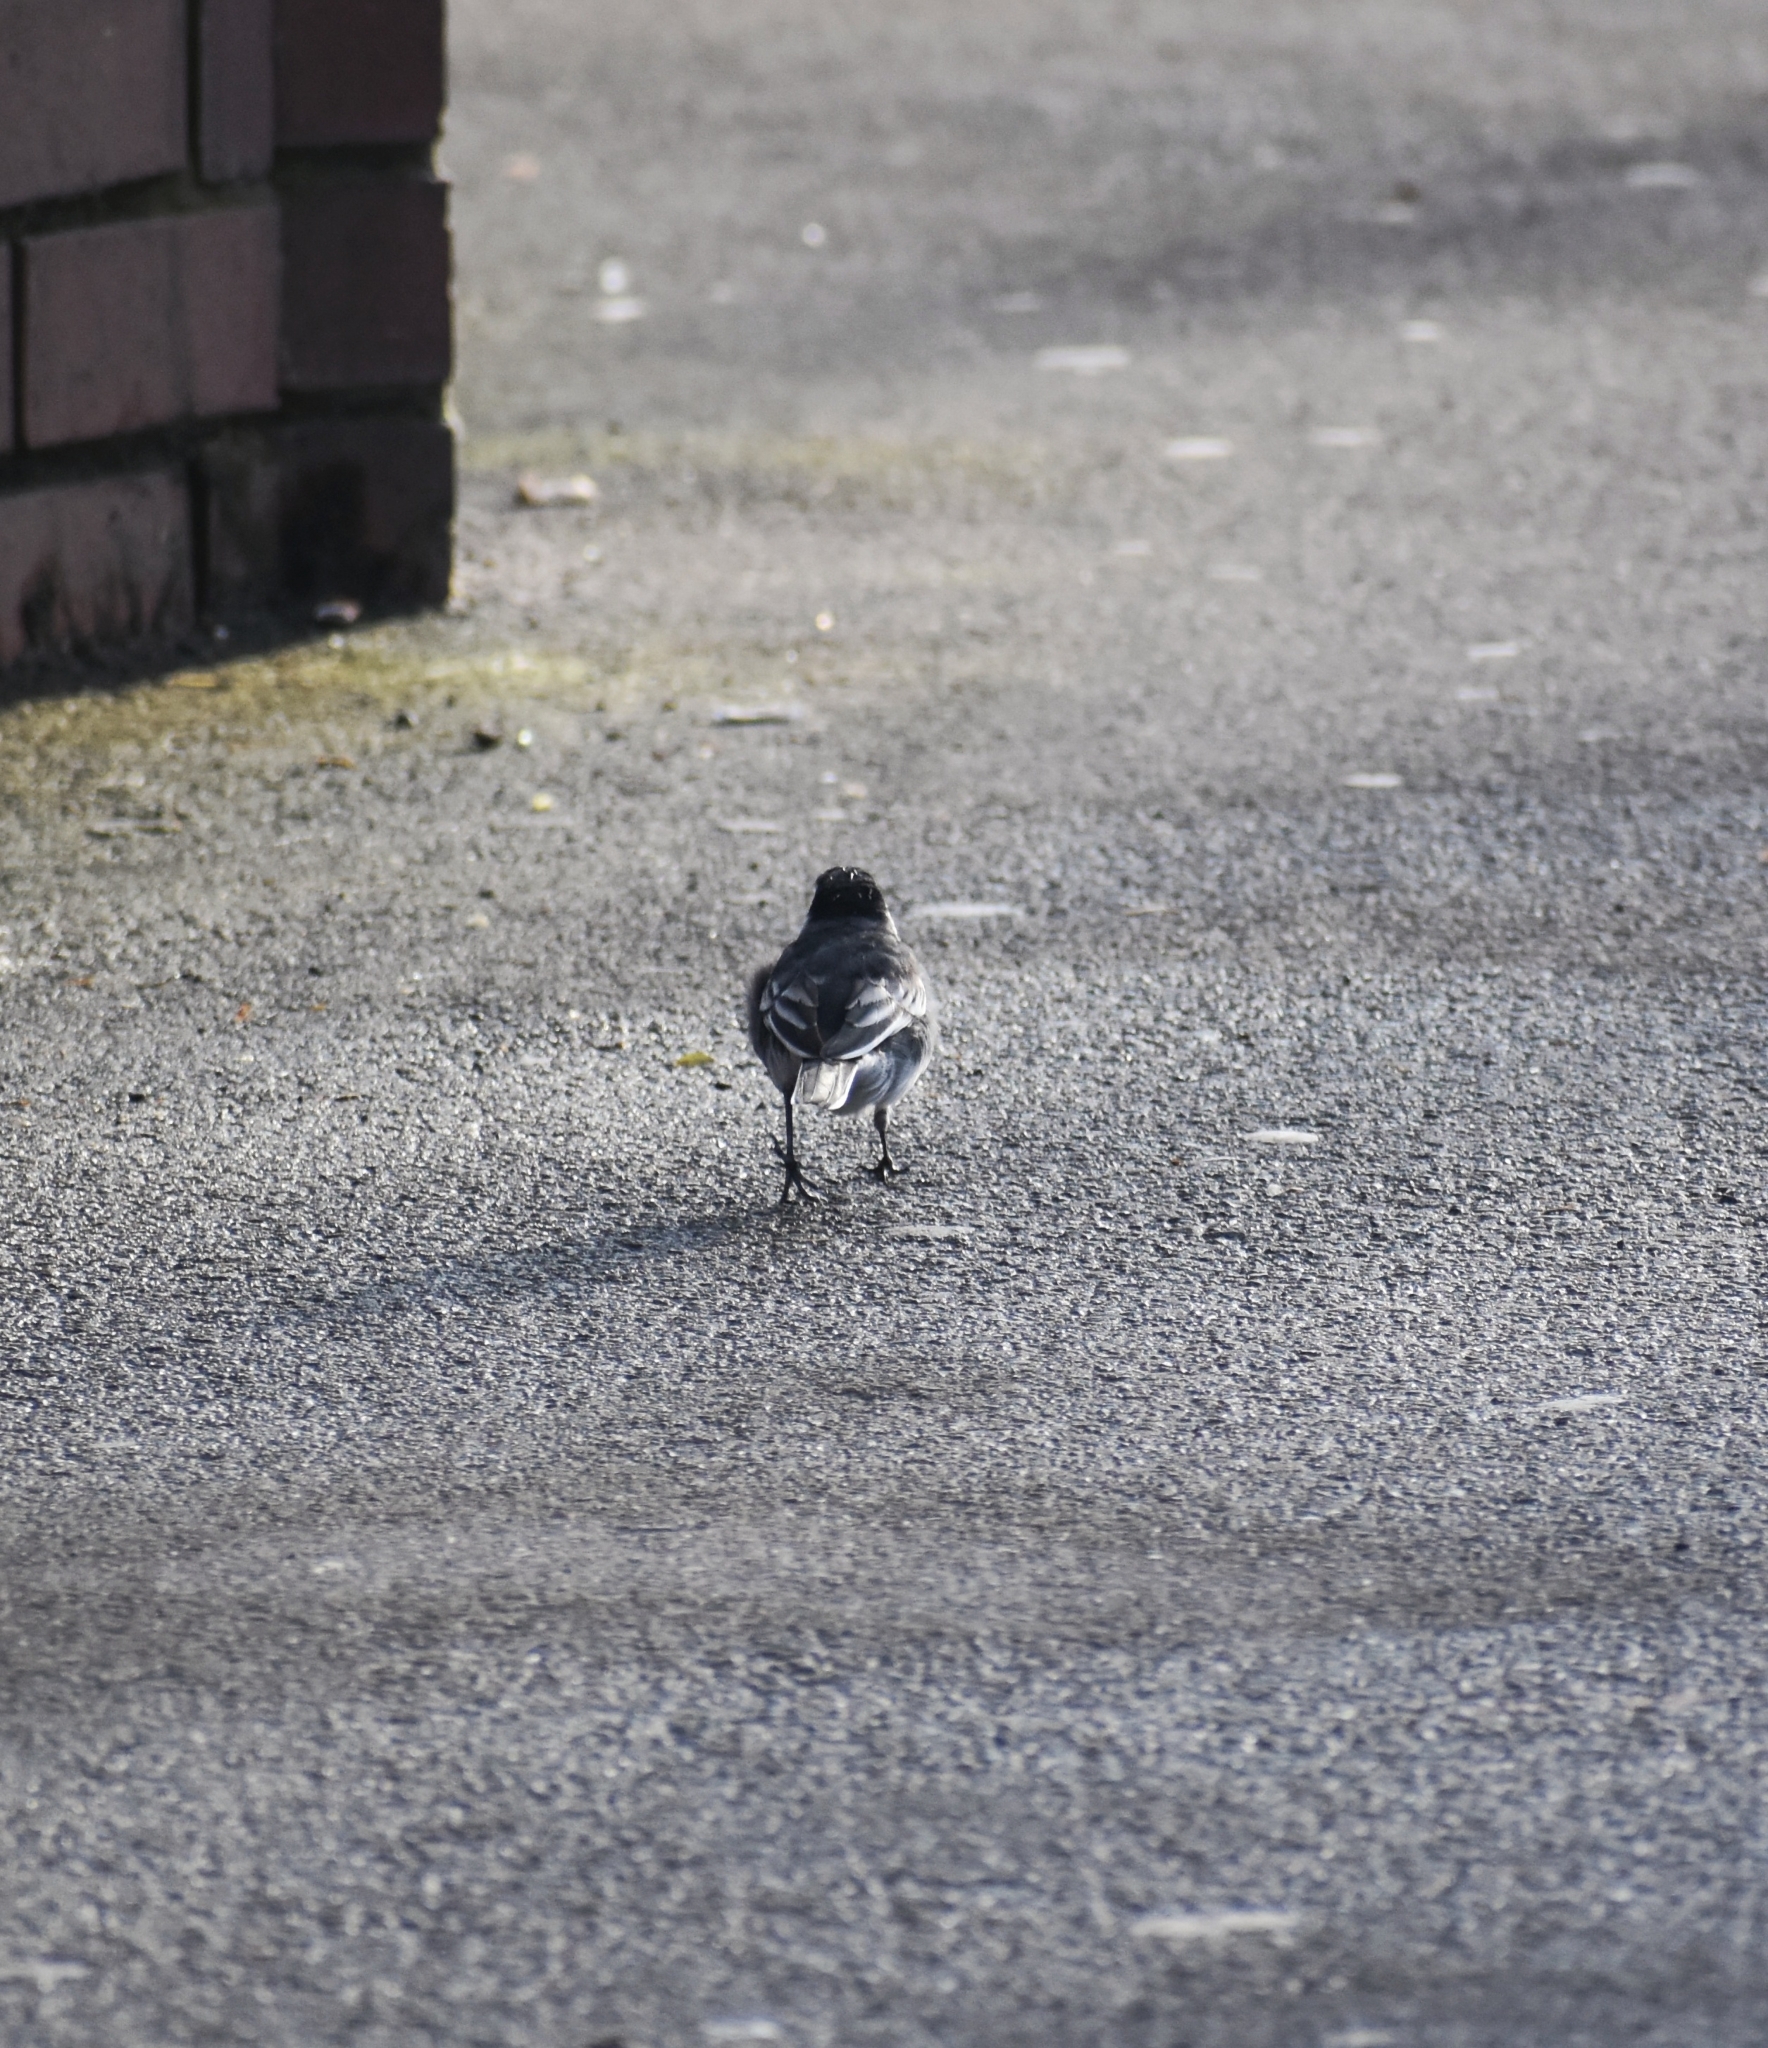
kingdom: Animalia
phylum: Chordata
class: Aves
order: Passeriformes
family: Motacillidae
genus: Motacilla
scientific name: Motacilla alba
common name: White wagtail
